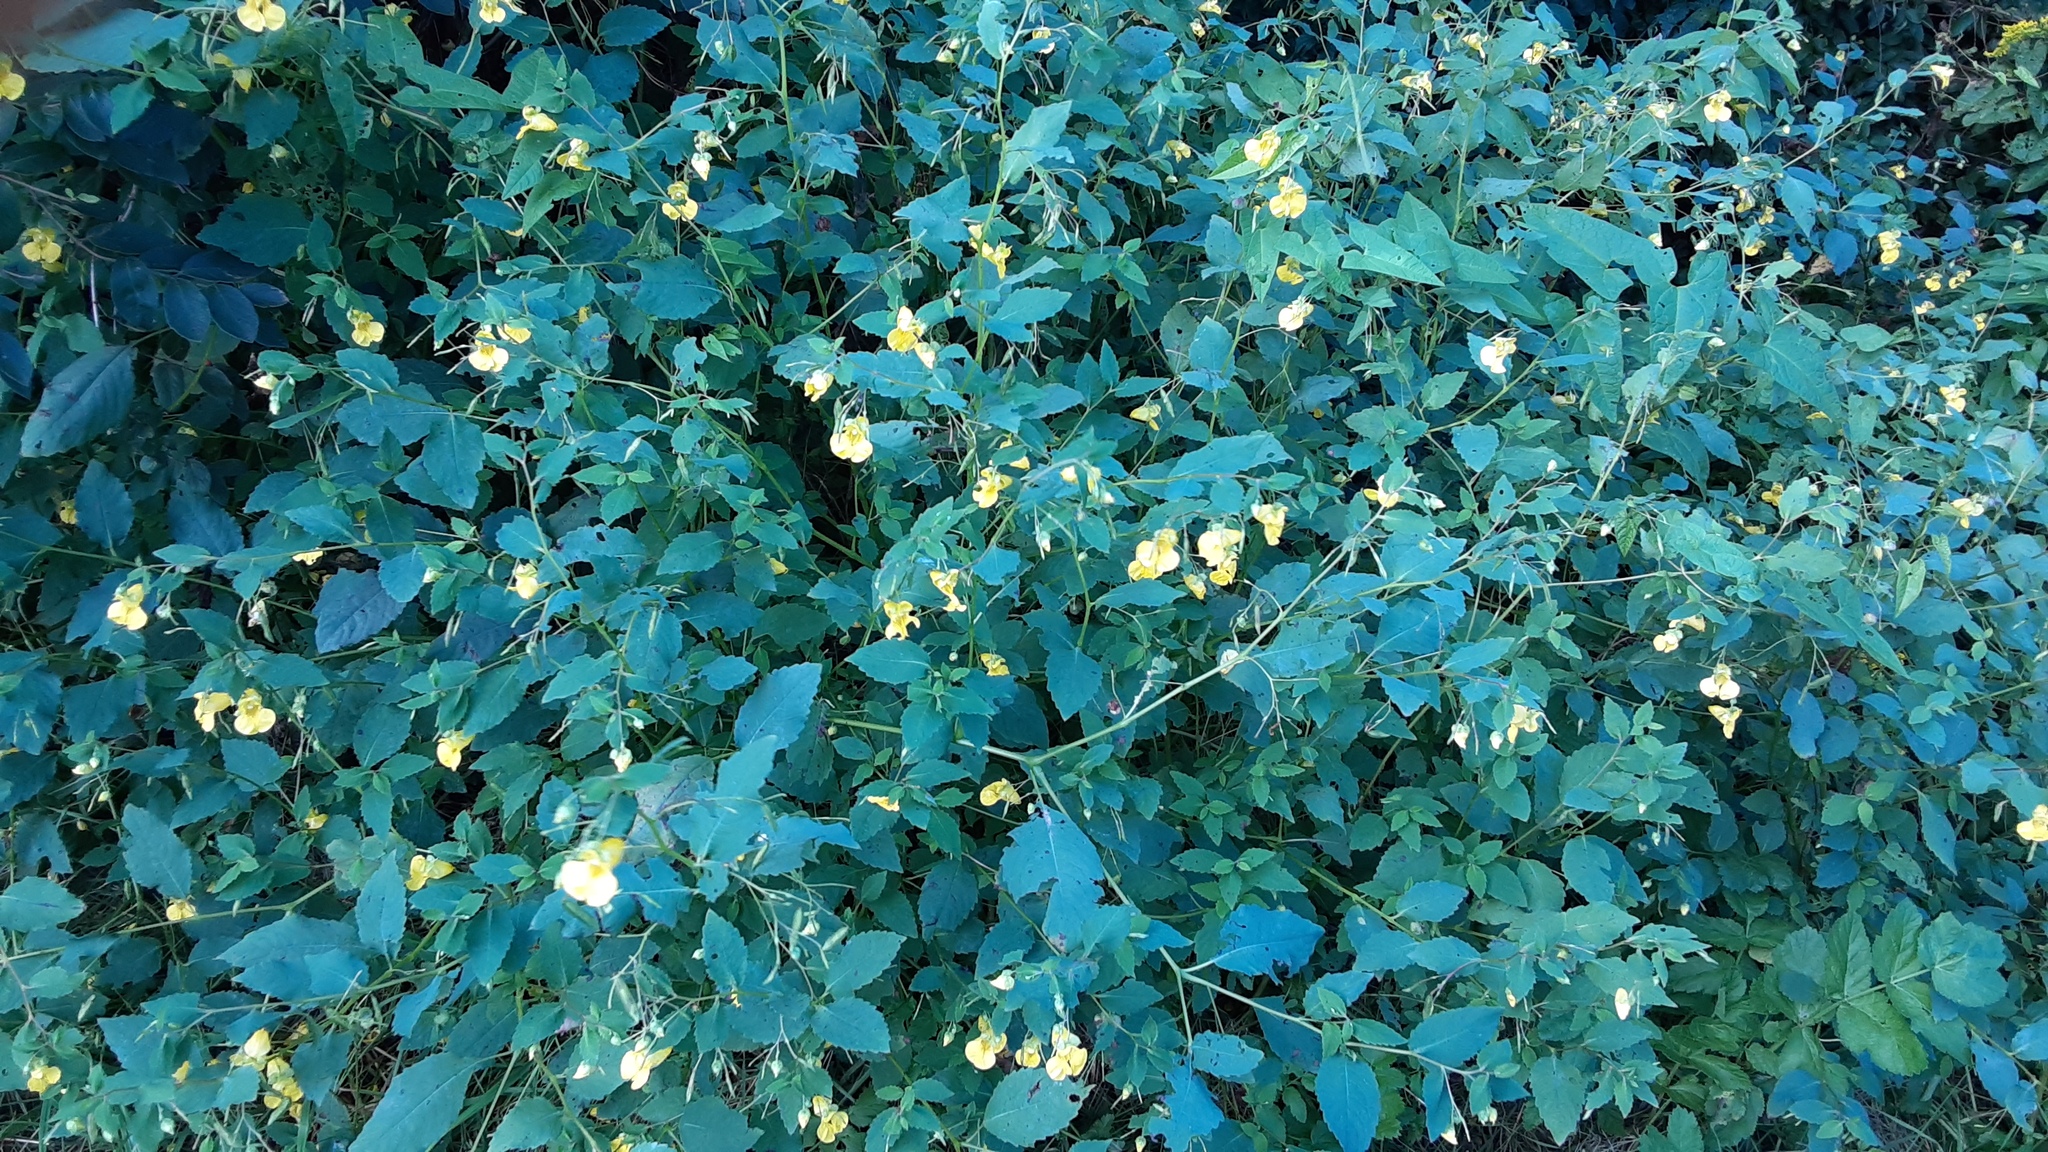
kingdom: Plantae
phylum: Tracheophyta
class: Magnoliopsida
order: Ericales
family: Balsaminaceae
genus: Impatiens
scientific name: Impatiens pallida
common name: Pale snapweed
